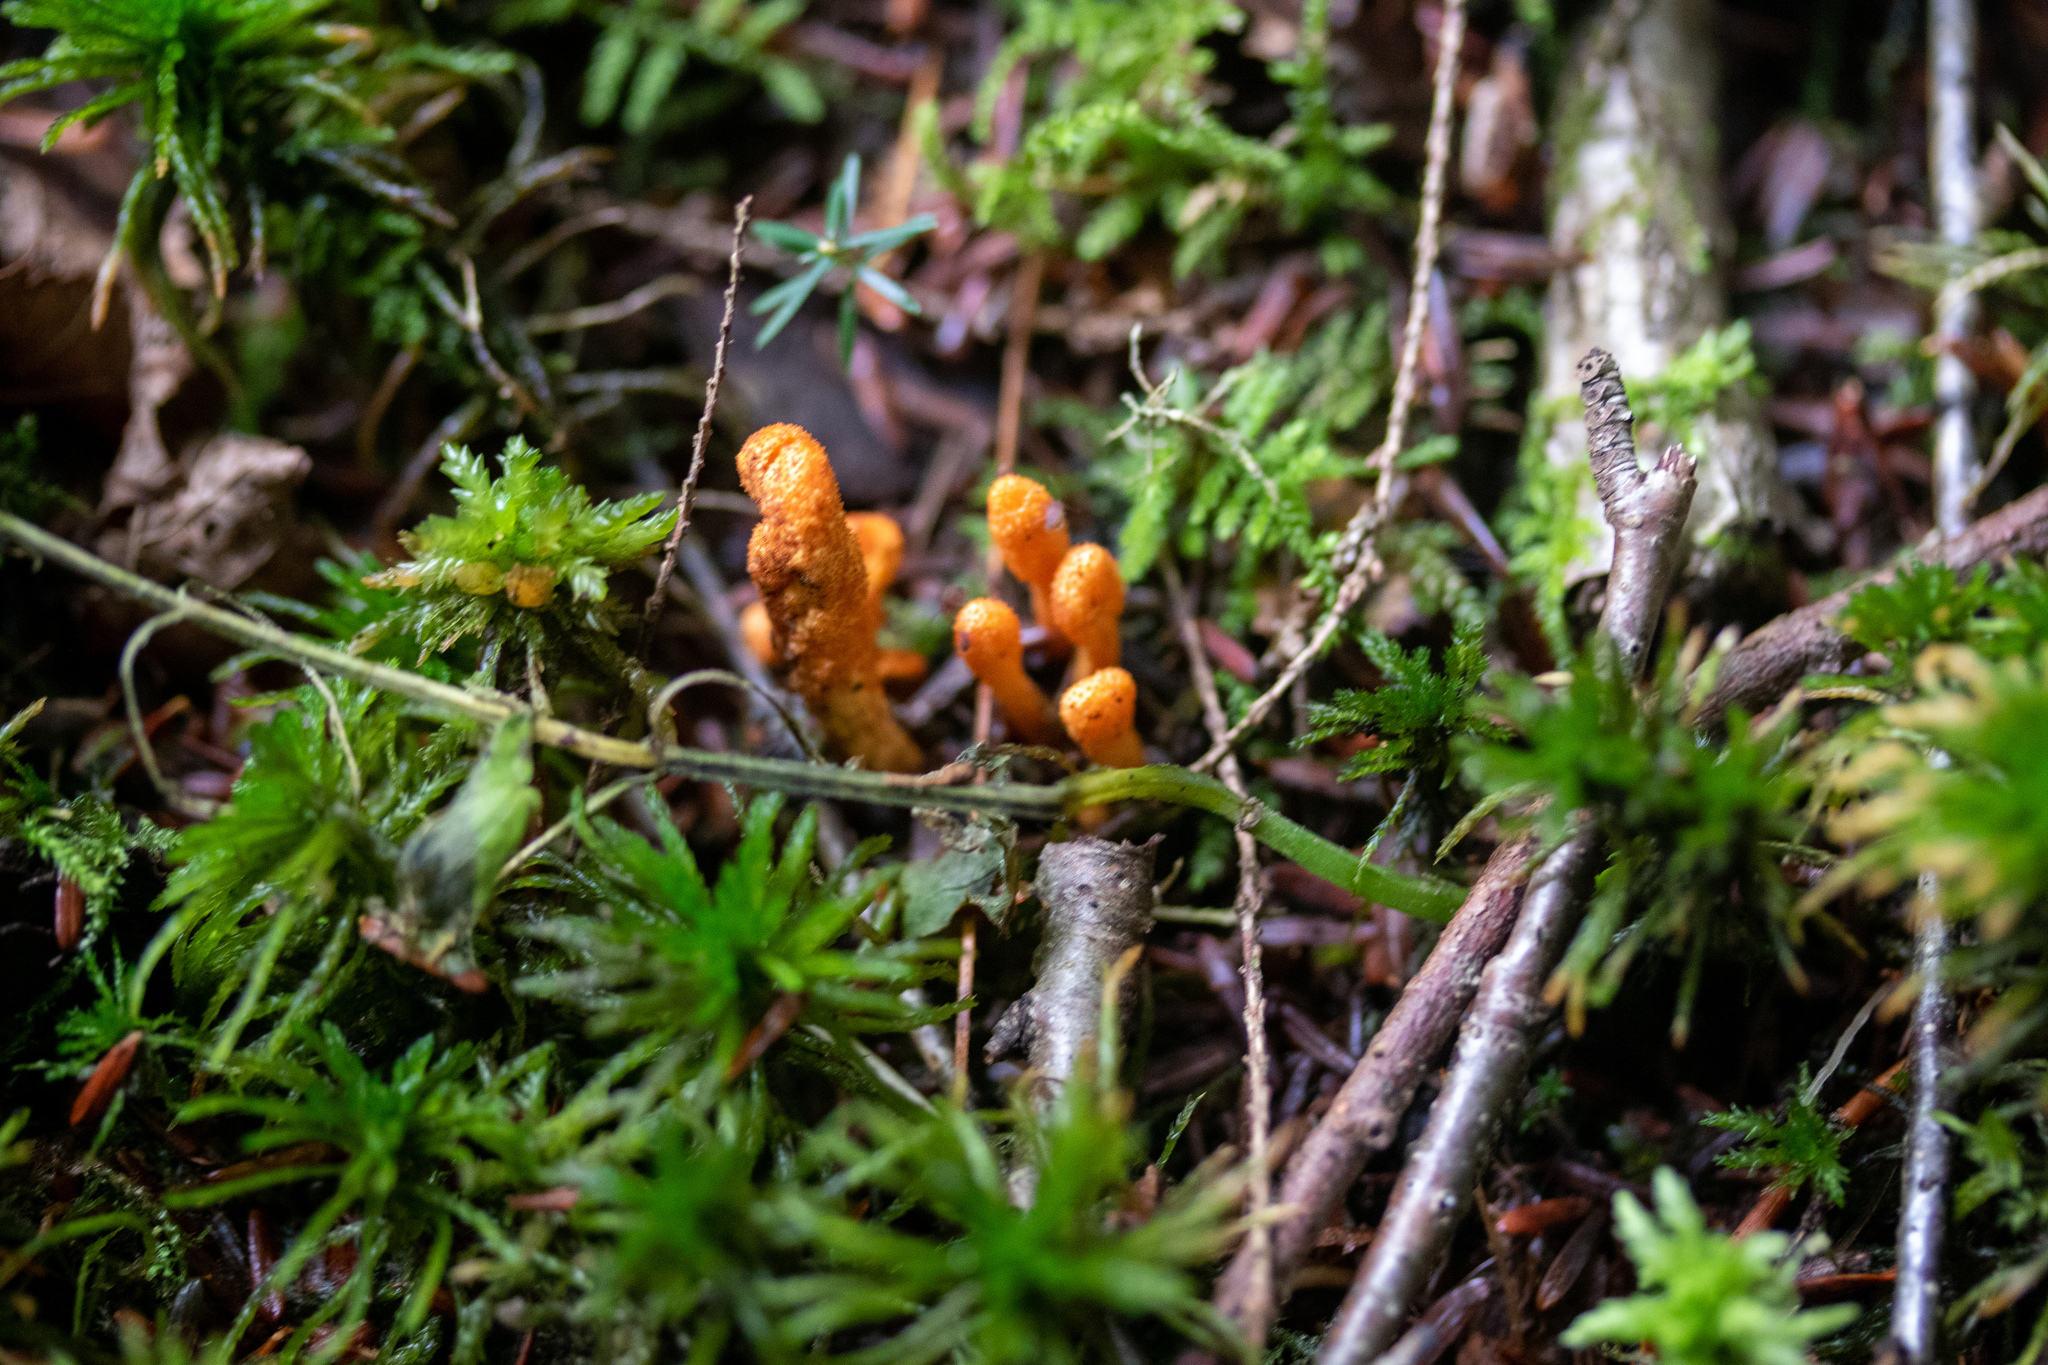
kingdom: Fungi
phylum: Ascomycota
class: Sordariomycetes
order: Hypocreales
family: Cordycipitaceae
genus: Cordyceps
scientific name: Cordyceps militaris
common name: Scarlet caterpillar fungus
